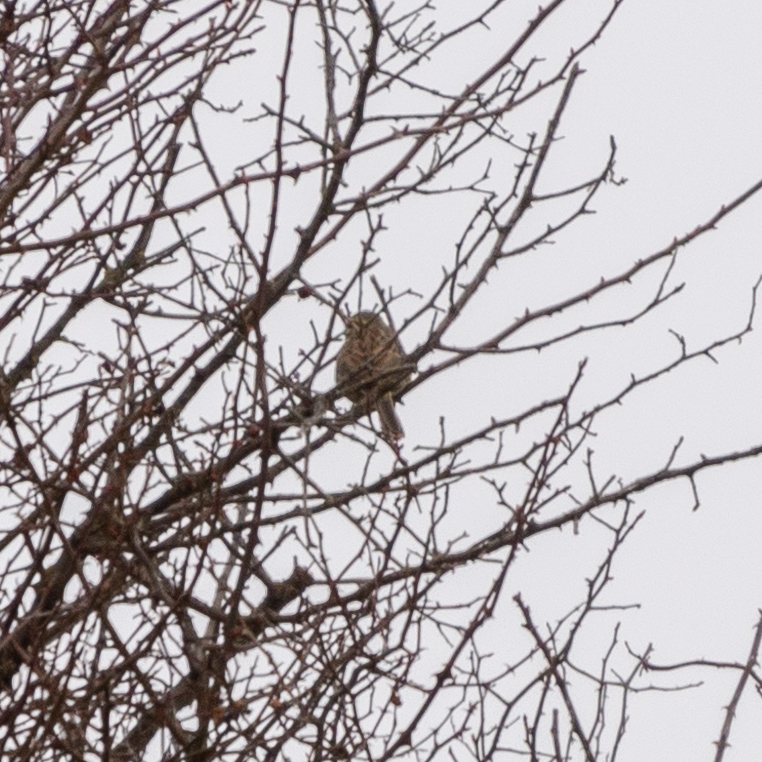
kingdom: Animalia
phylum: Chordata
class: Aves
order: Passeriformes
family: Emberizidae
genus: Emberiza
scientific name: Emberiza cirlus
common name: Cirl bunting
